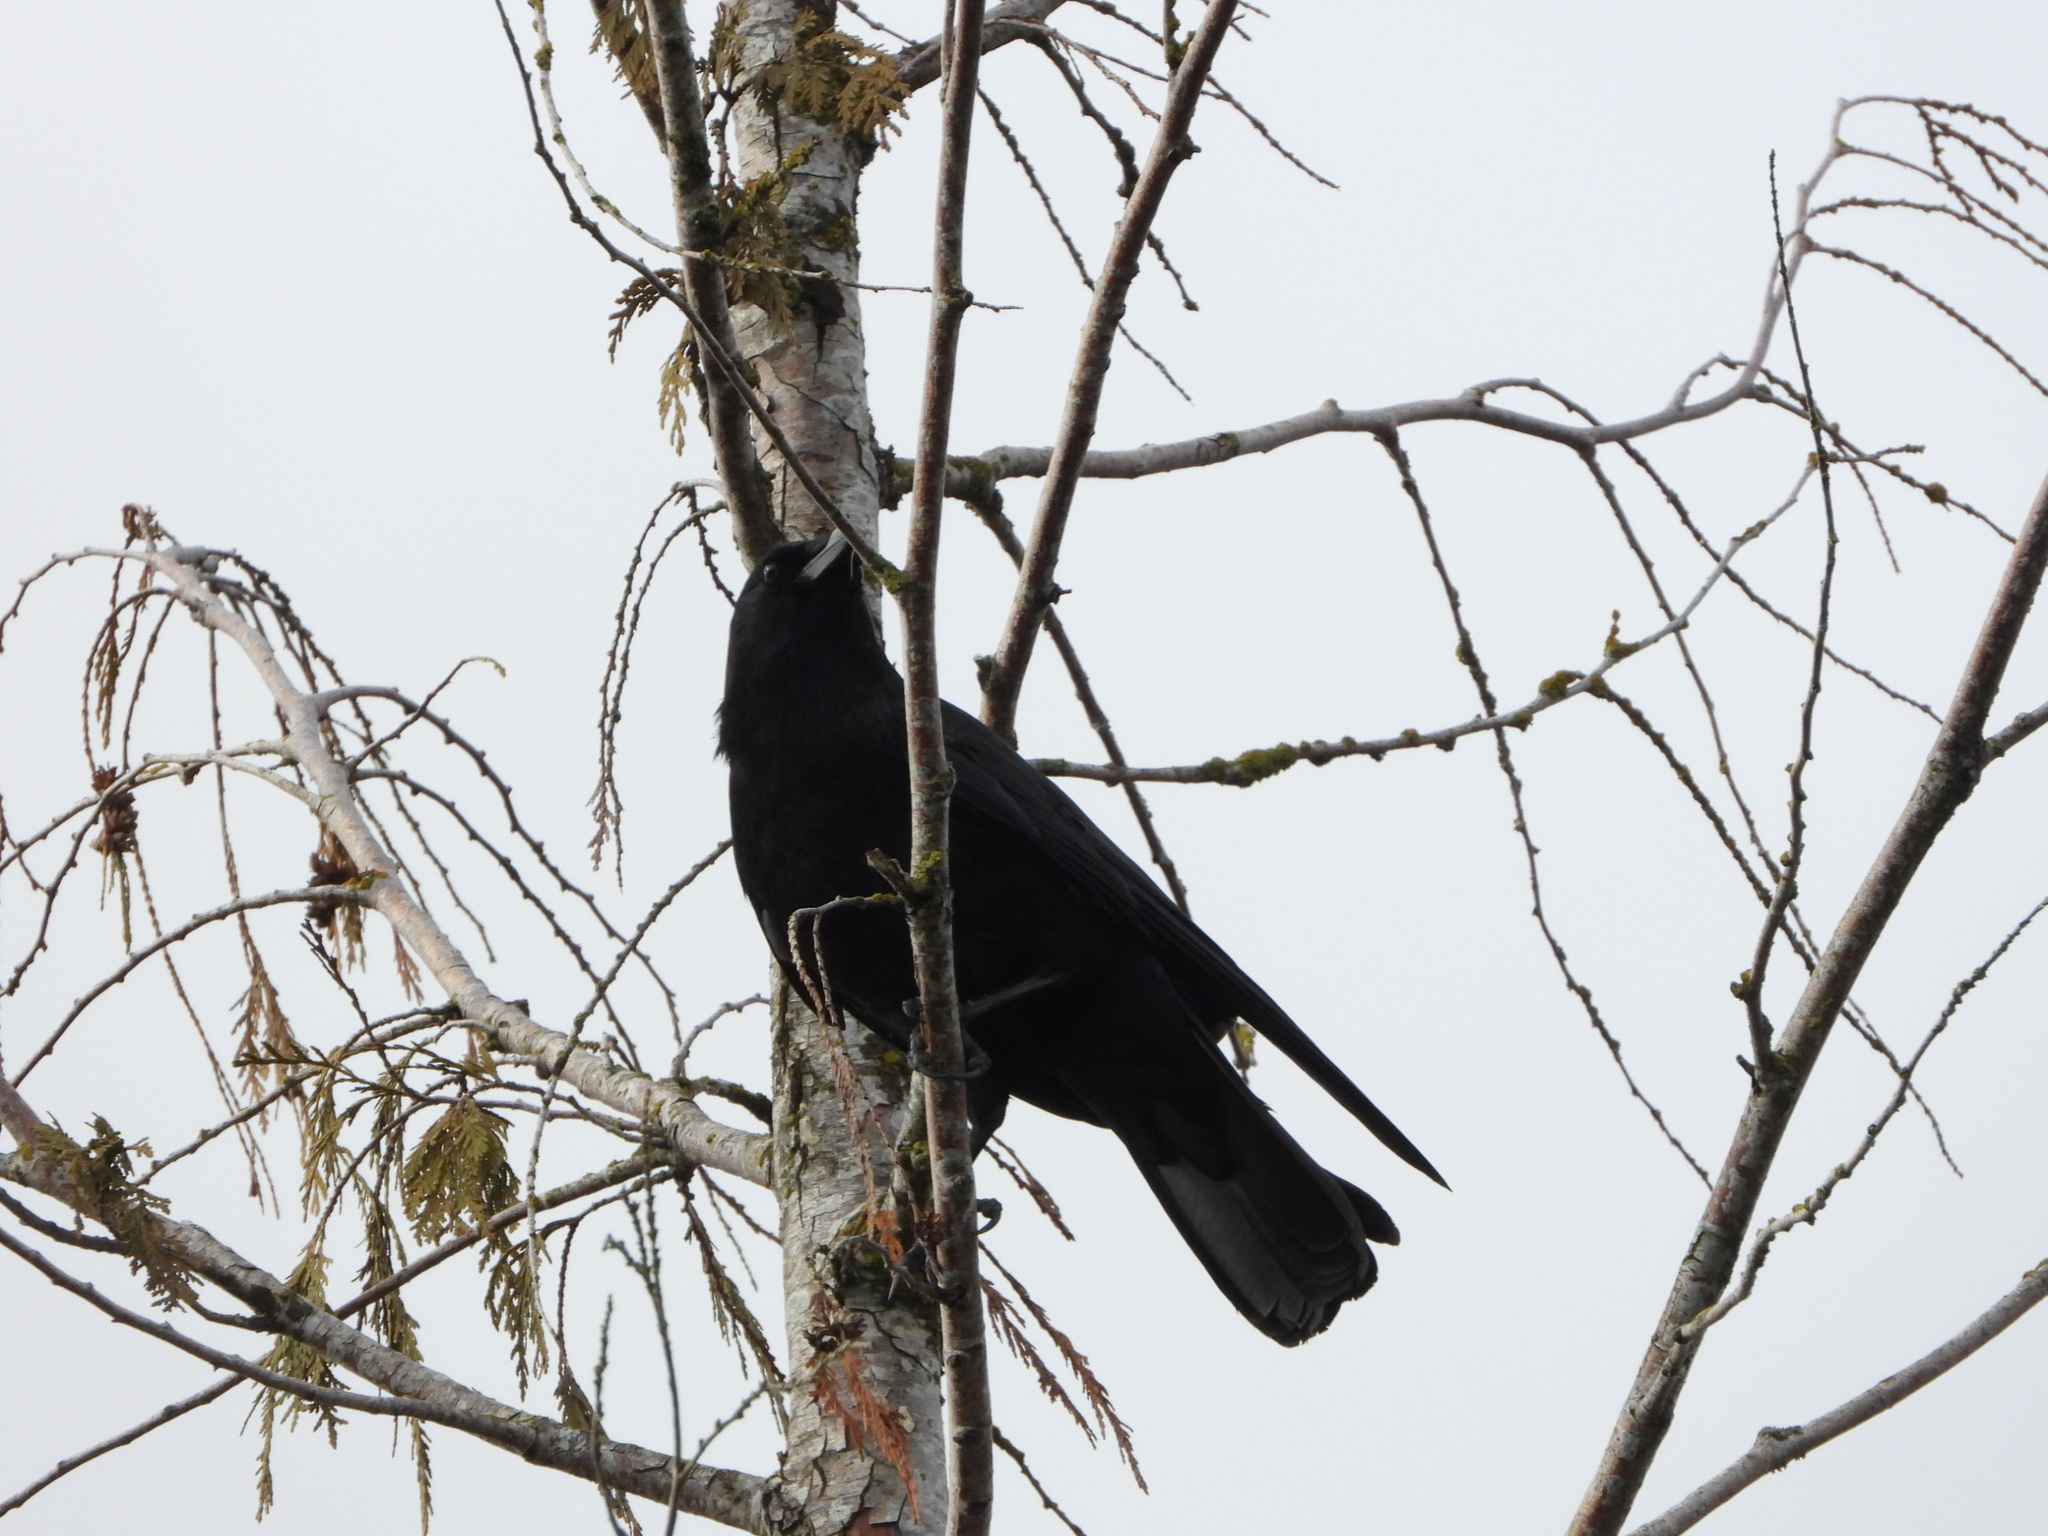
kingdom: Animalia
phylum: Chordata
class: Aves
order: Passeriformes
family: Corvidae
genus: Corvus
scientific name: Corvus brachyrhynchos
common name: American crow
